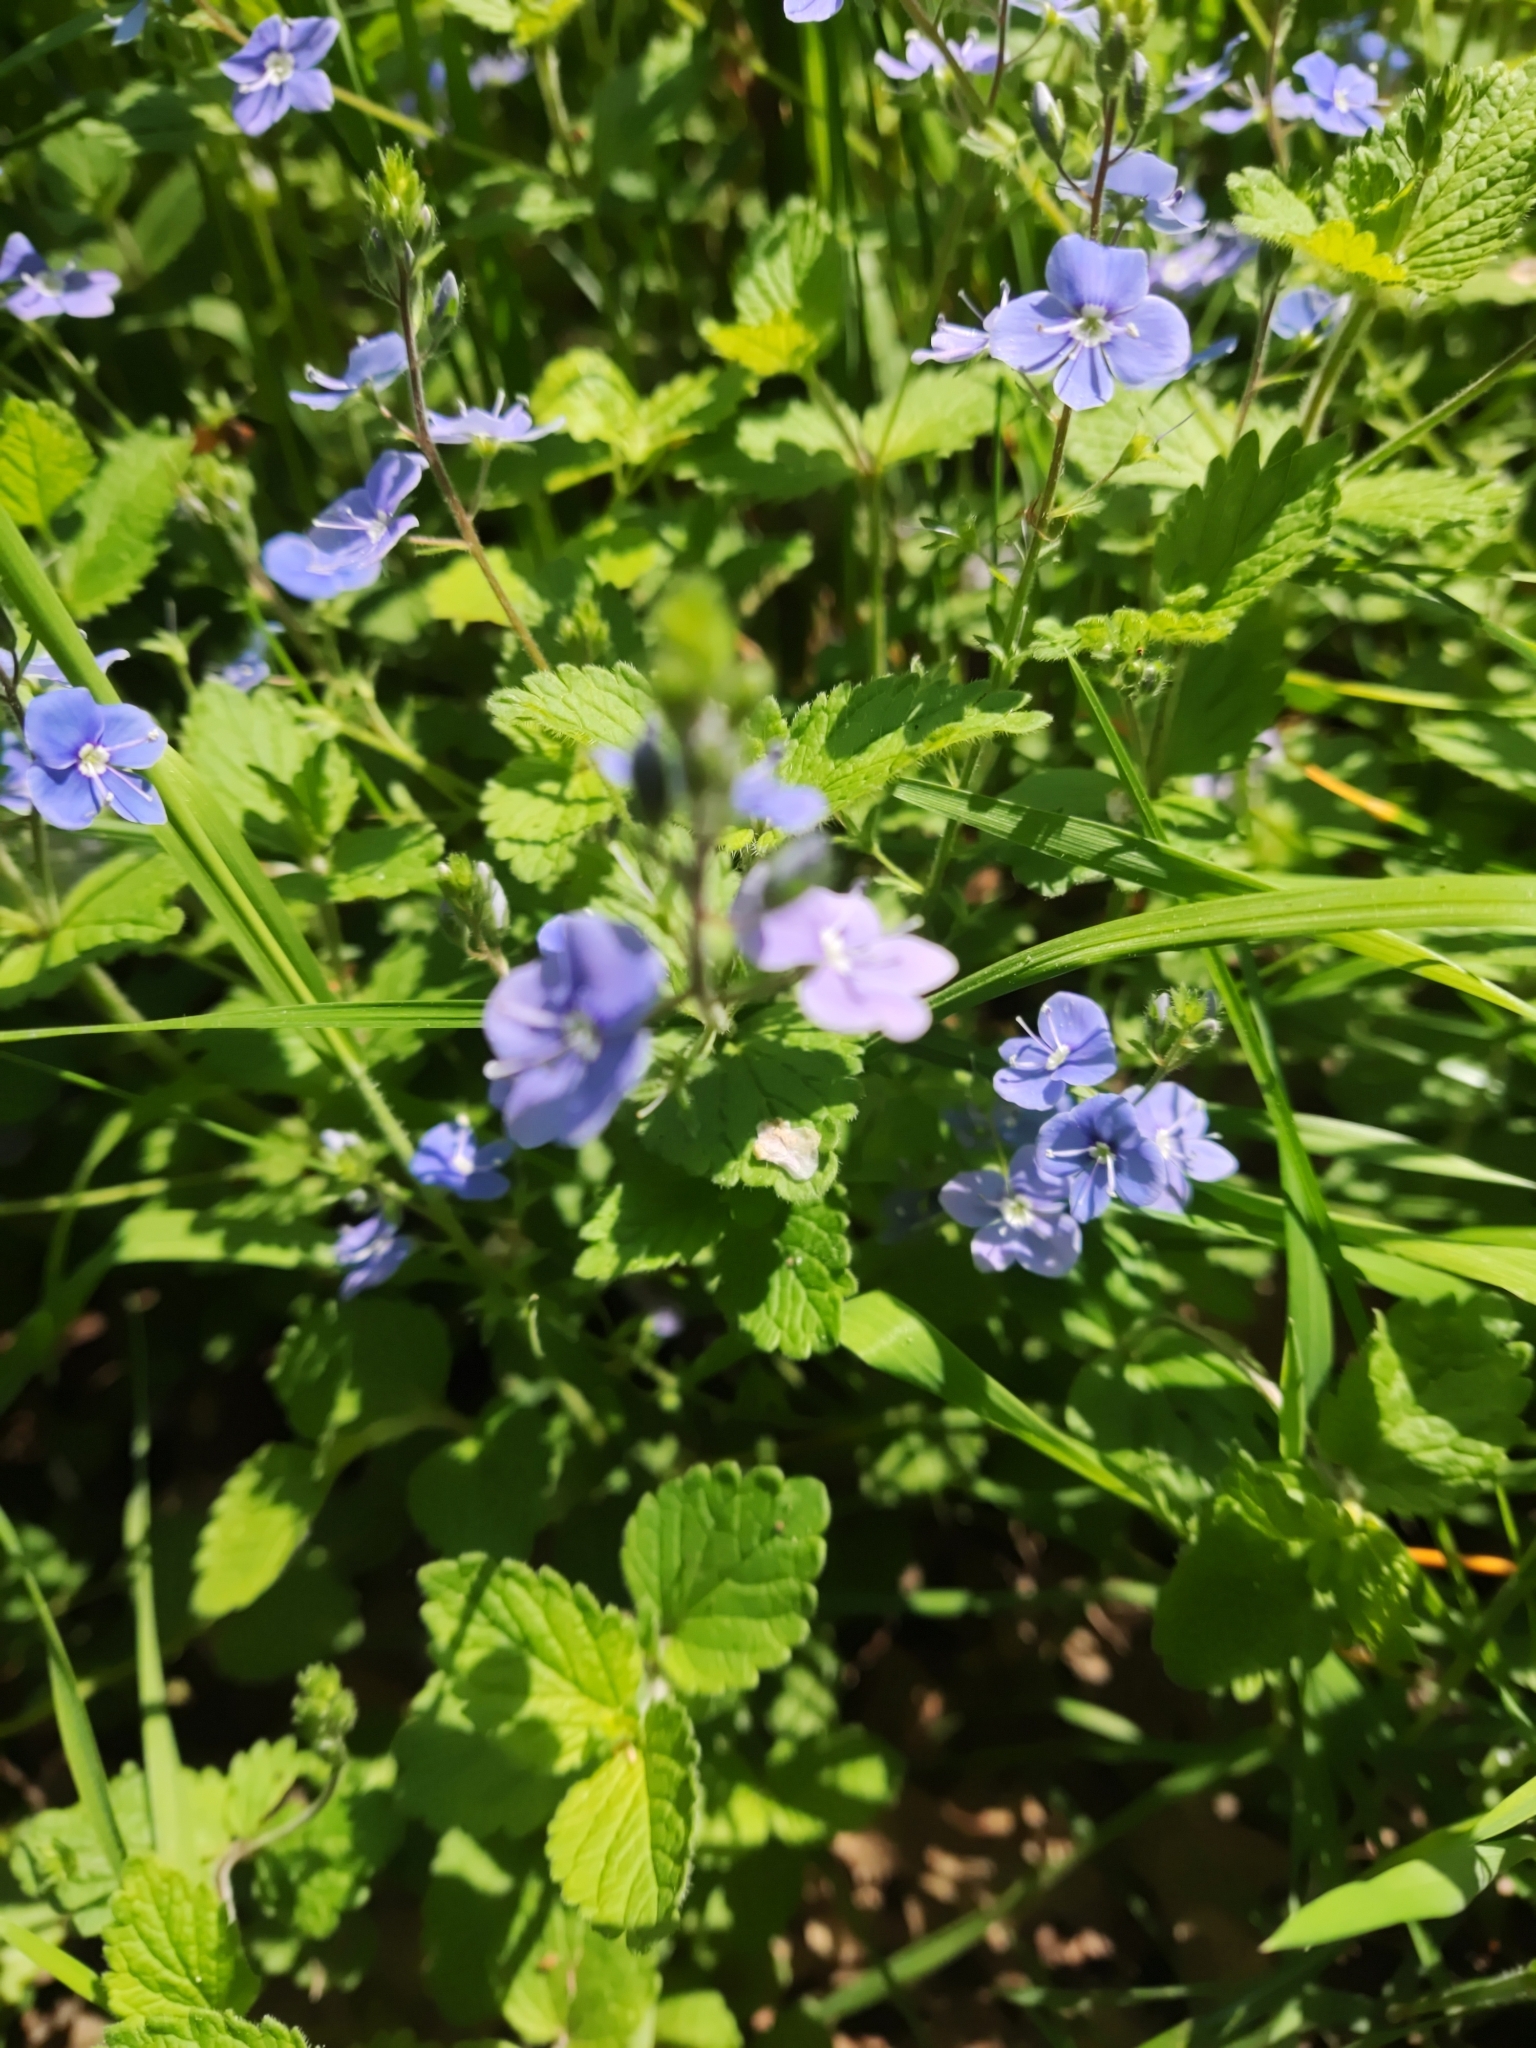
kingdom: Plantae
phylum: Tracheophyta
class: Magnoliopsida
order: Lamiales
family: Plantaginaceae
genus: Veronica
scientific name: Veronica chamaedrys
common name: Germander speedwell
